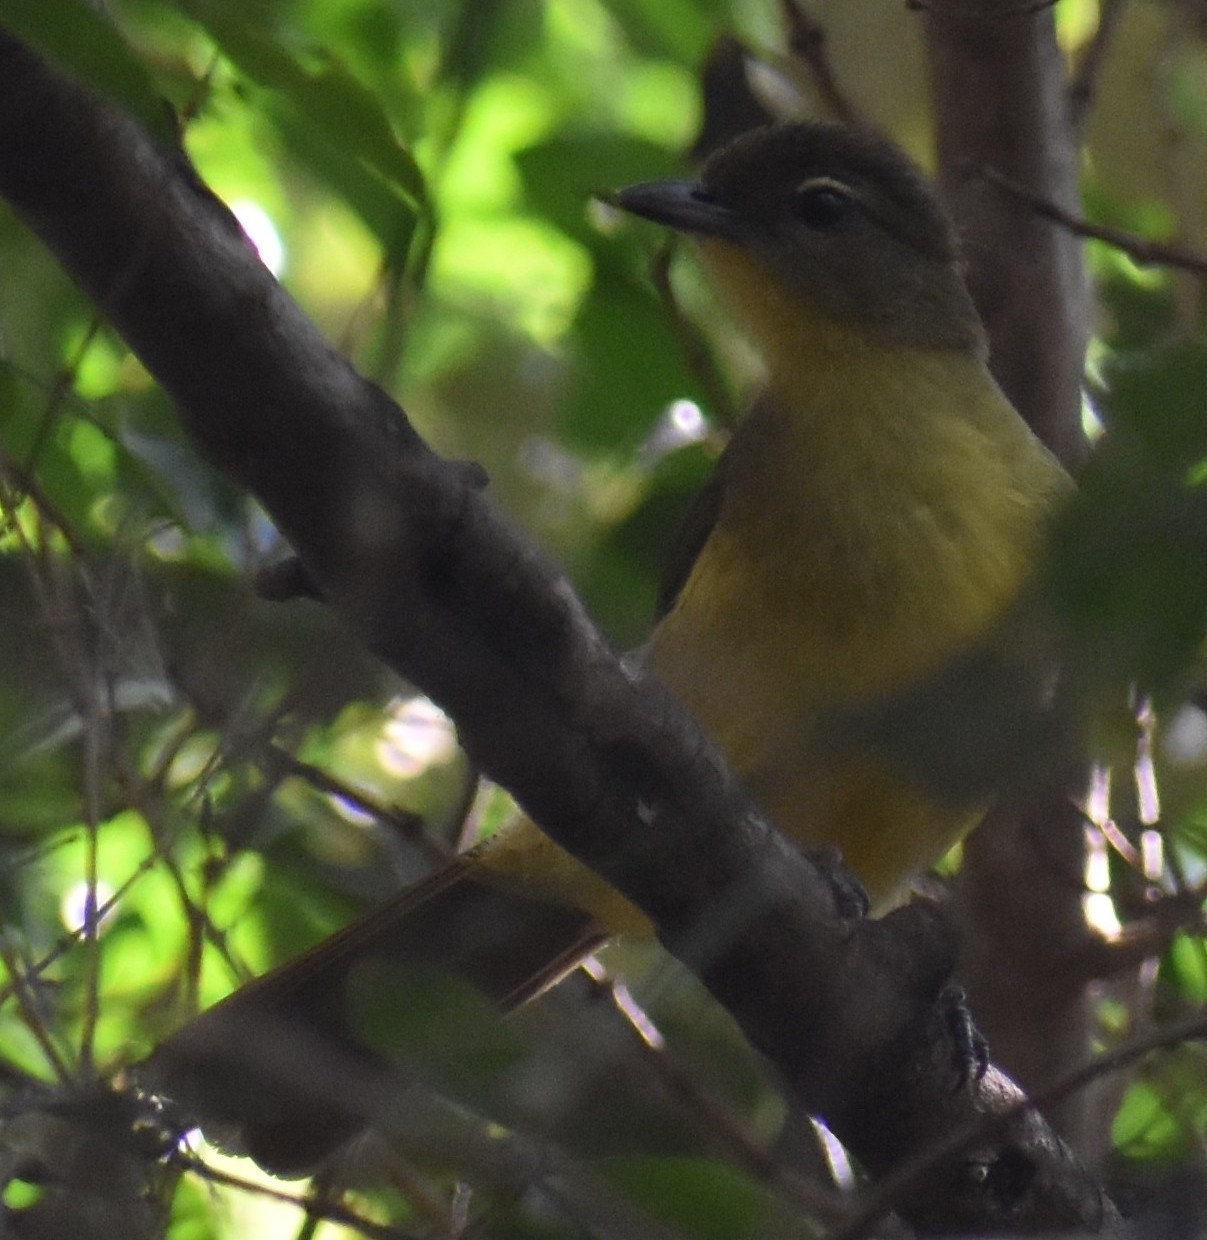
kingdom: Animalia
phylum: Chordata
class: Aves
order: Passeriformes
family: Pycnonotidae
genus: Chlorocichla
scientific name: Chlorocichla flaviventris
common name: Yellow-bellied greenbul
